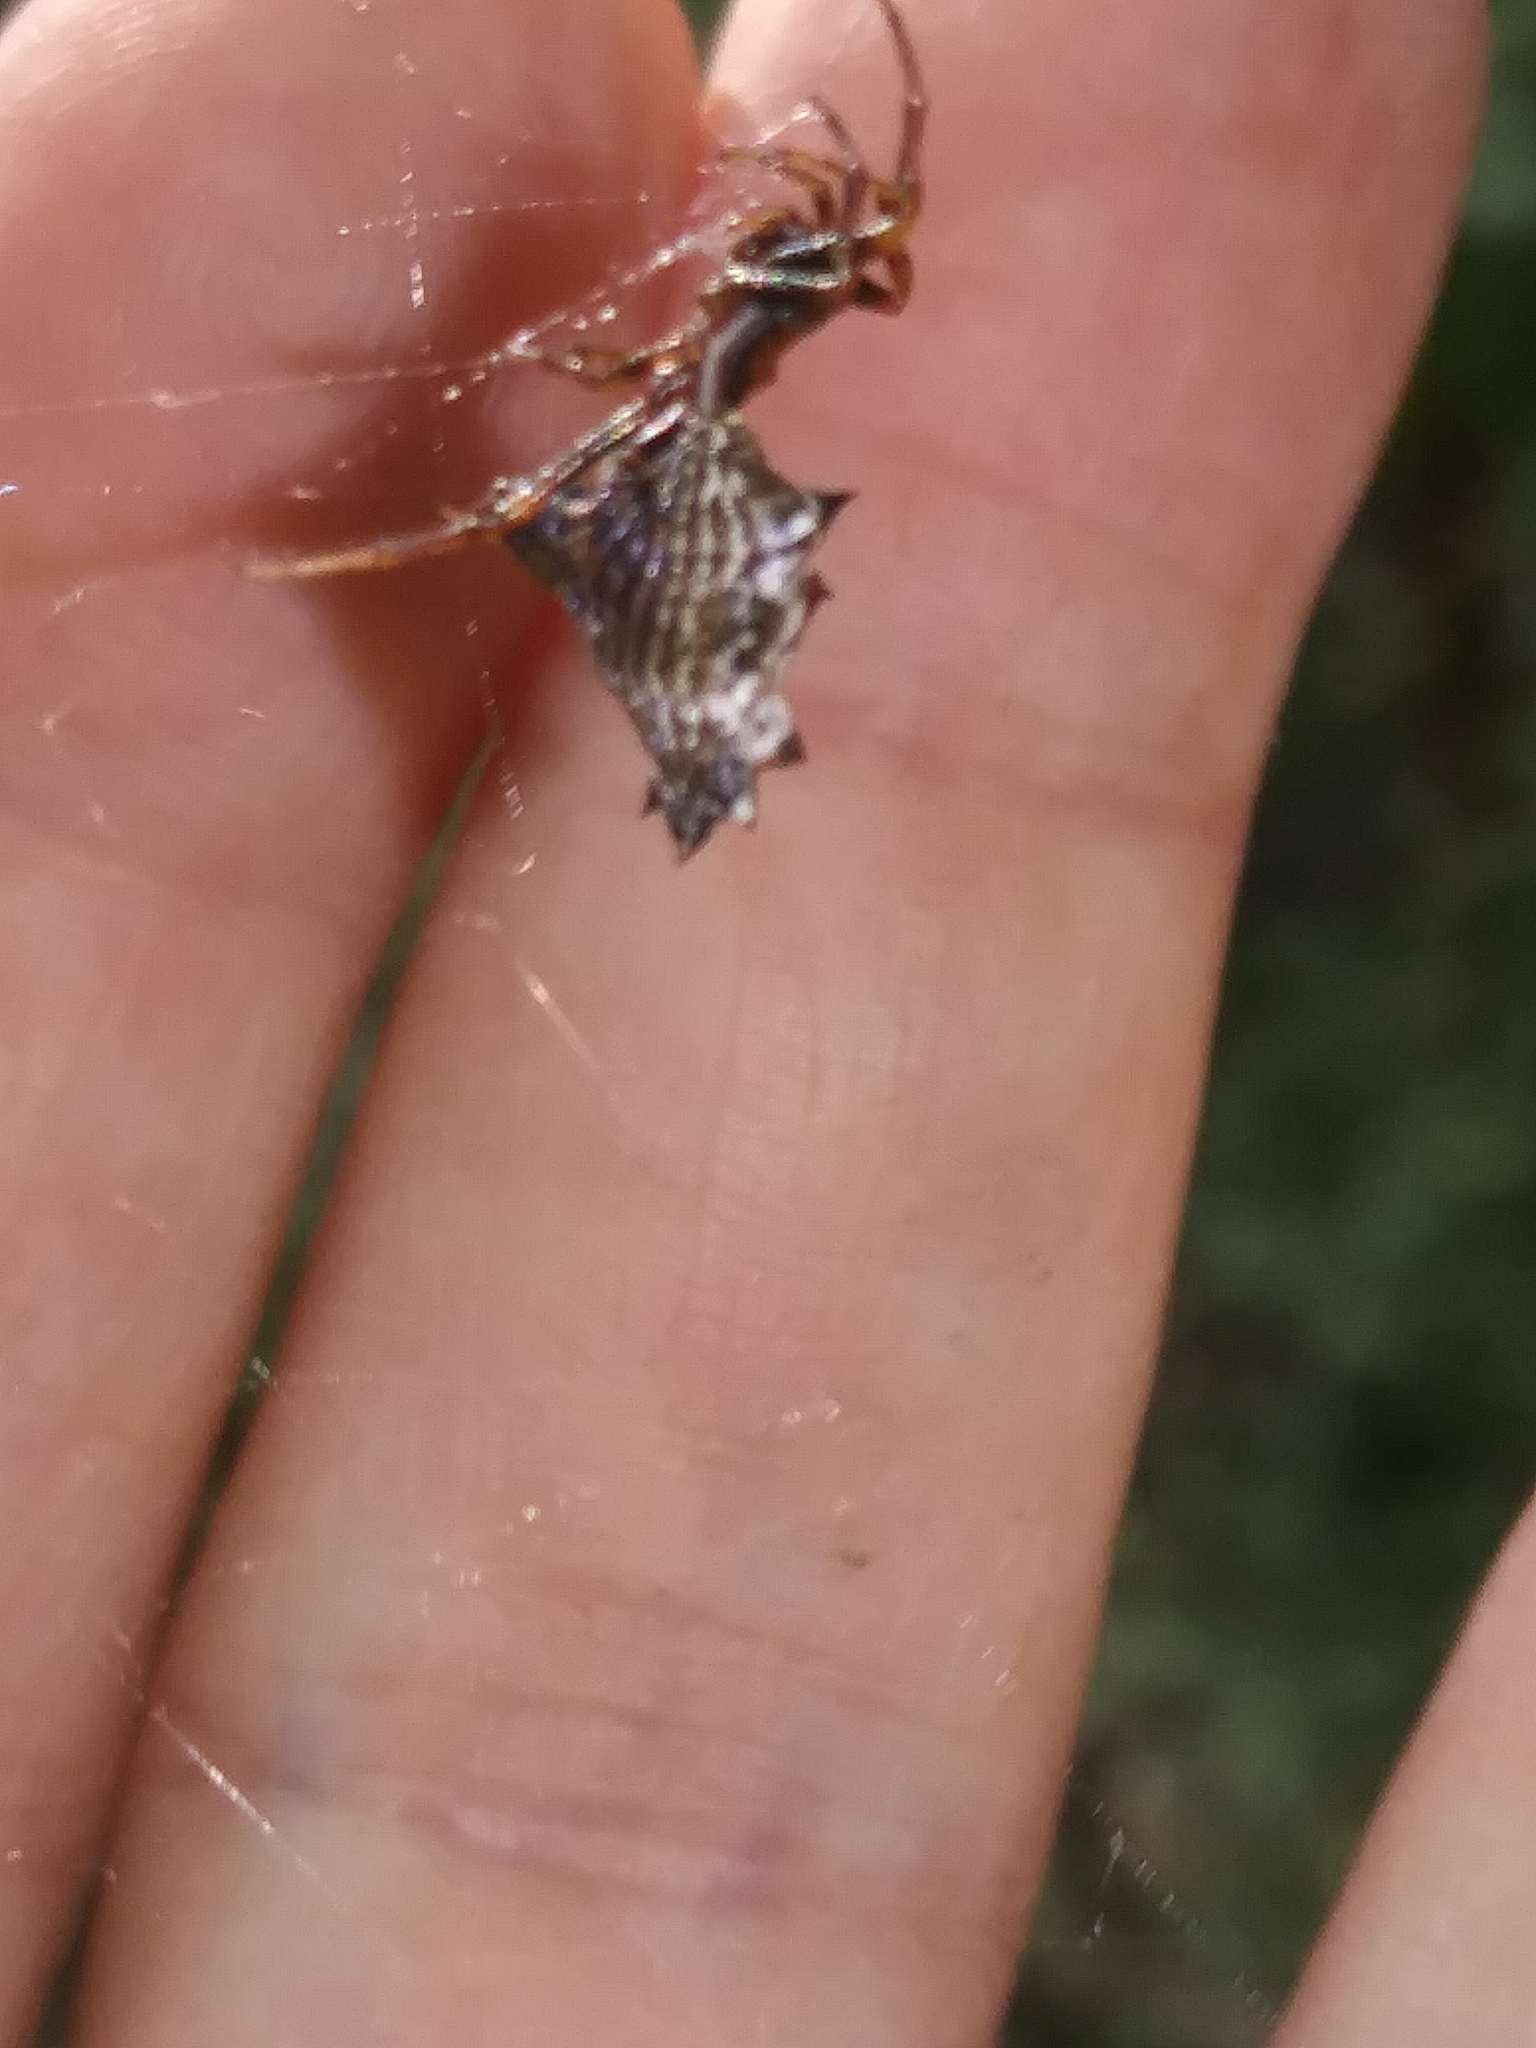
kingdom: Animalia
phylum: Arthropoda
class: Arachnida
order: Araneae
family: Araneidae
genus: Micrathena
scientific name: Micrathena gracilis
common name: Orb weavers
